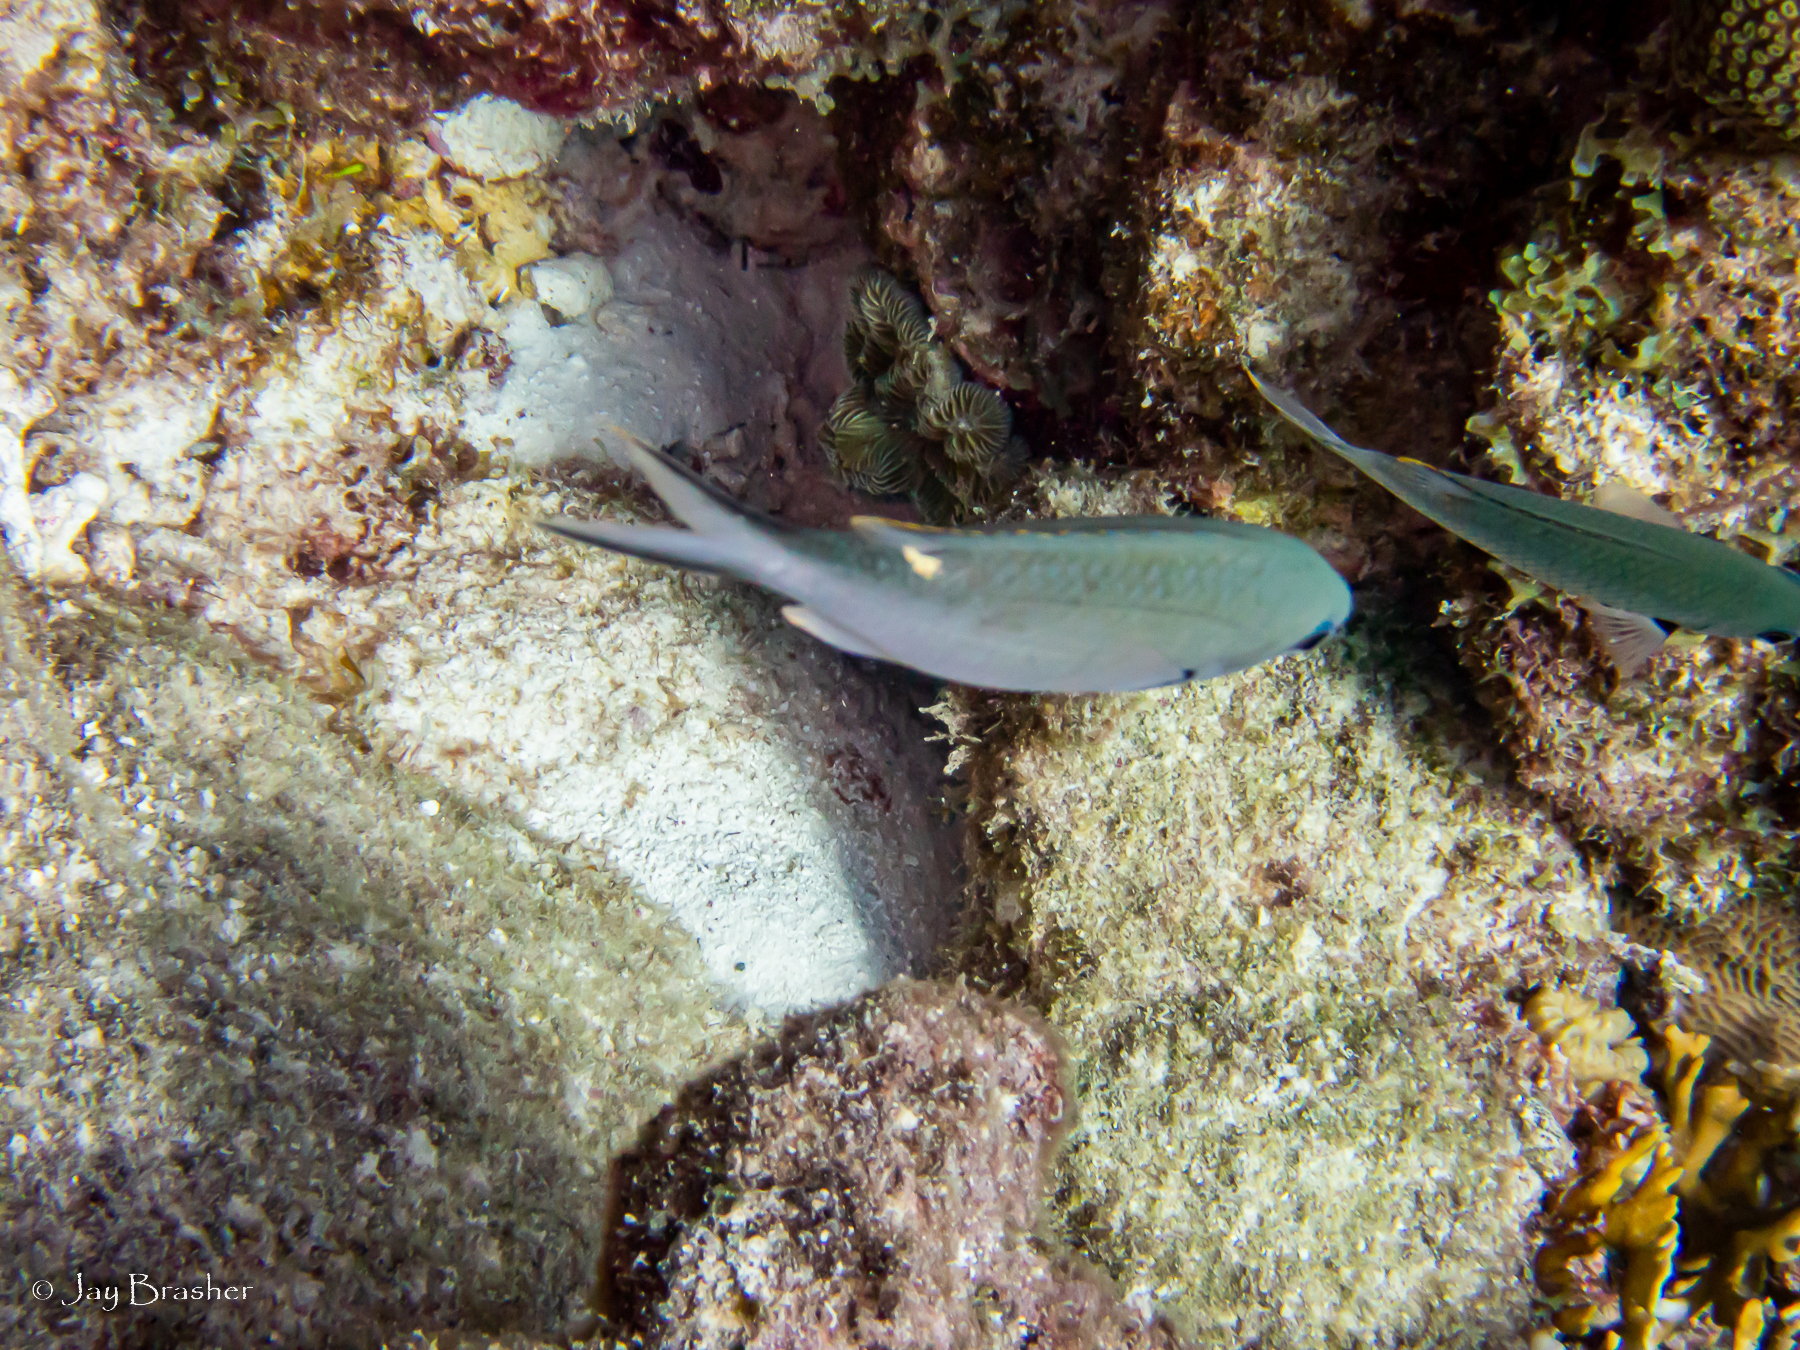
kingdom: Animalia
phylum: Chordata
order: Perciformes
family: Pomacentridae
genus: Chromis
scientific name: Chromis multilineata
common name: Brown chromis
